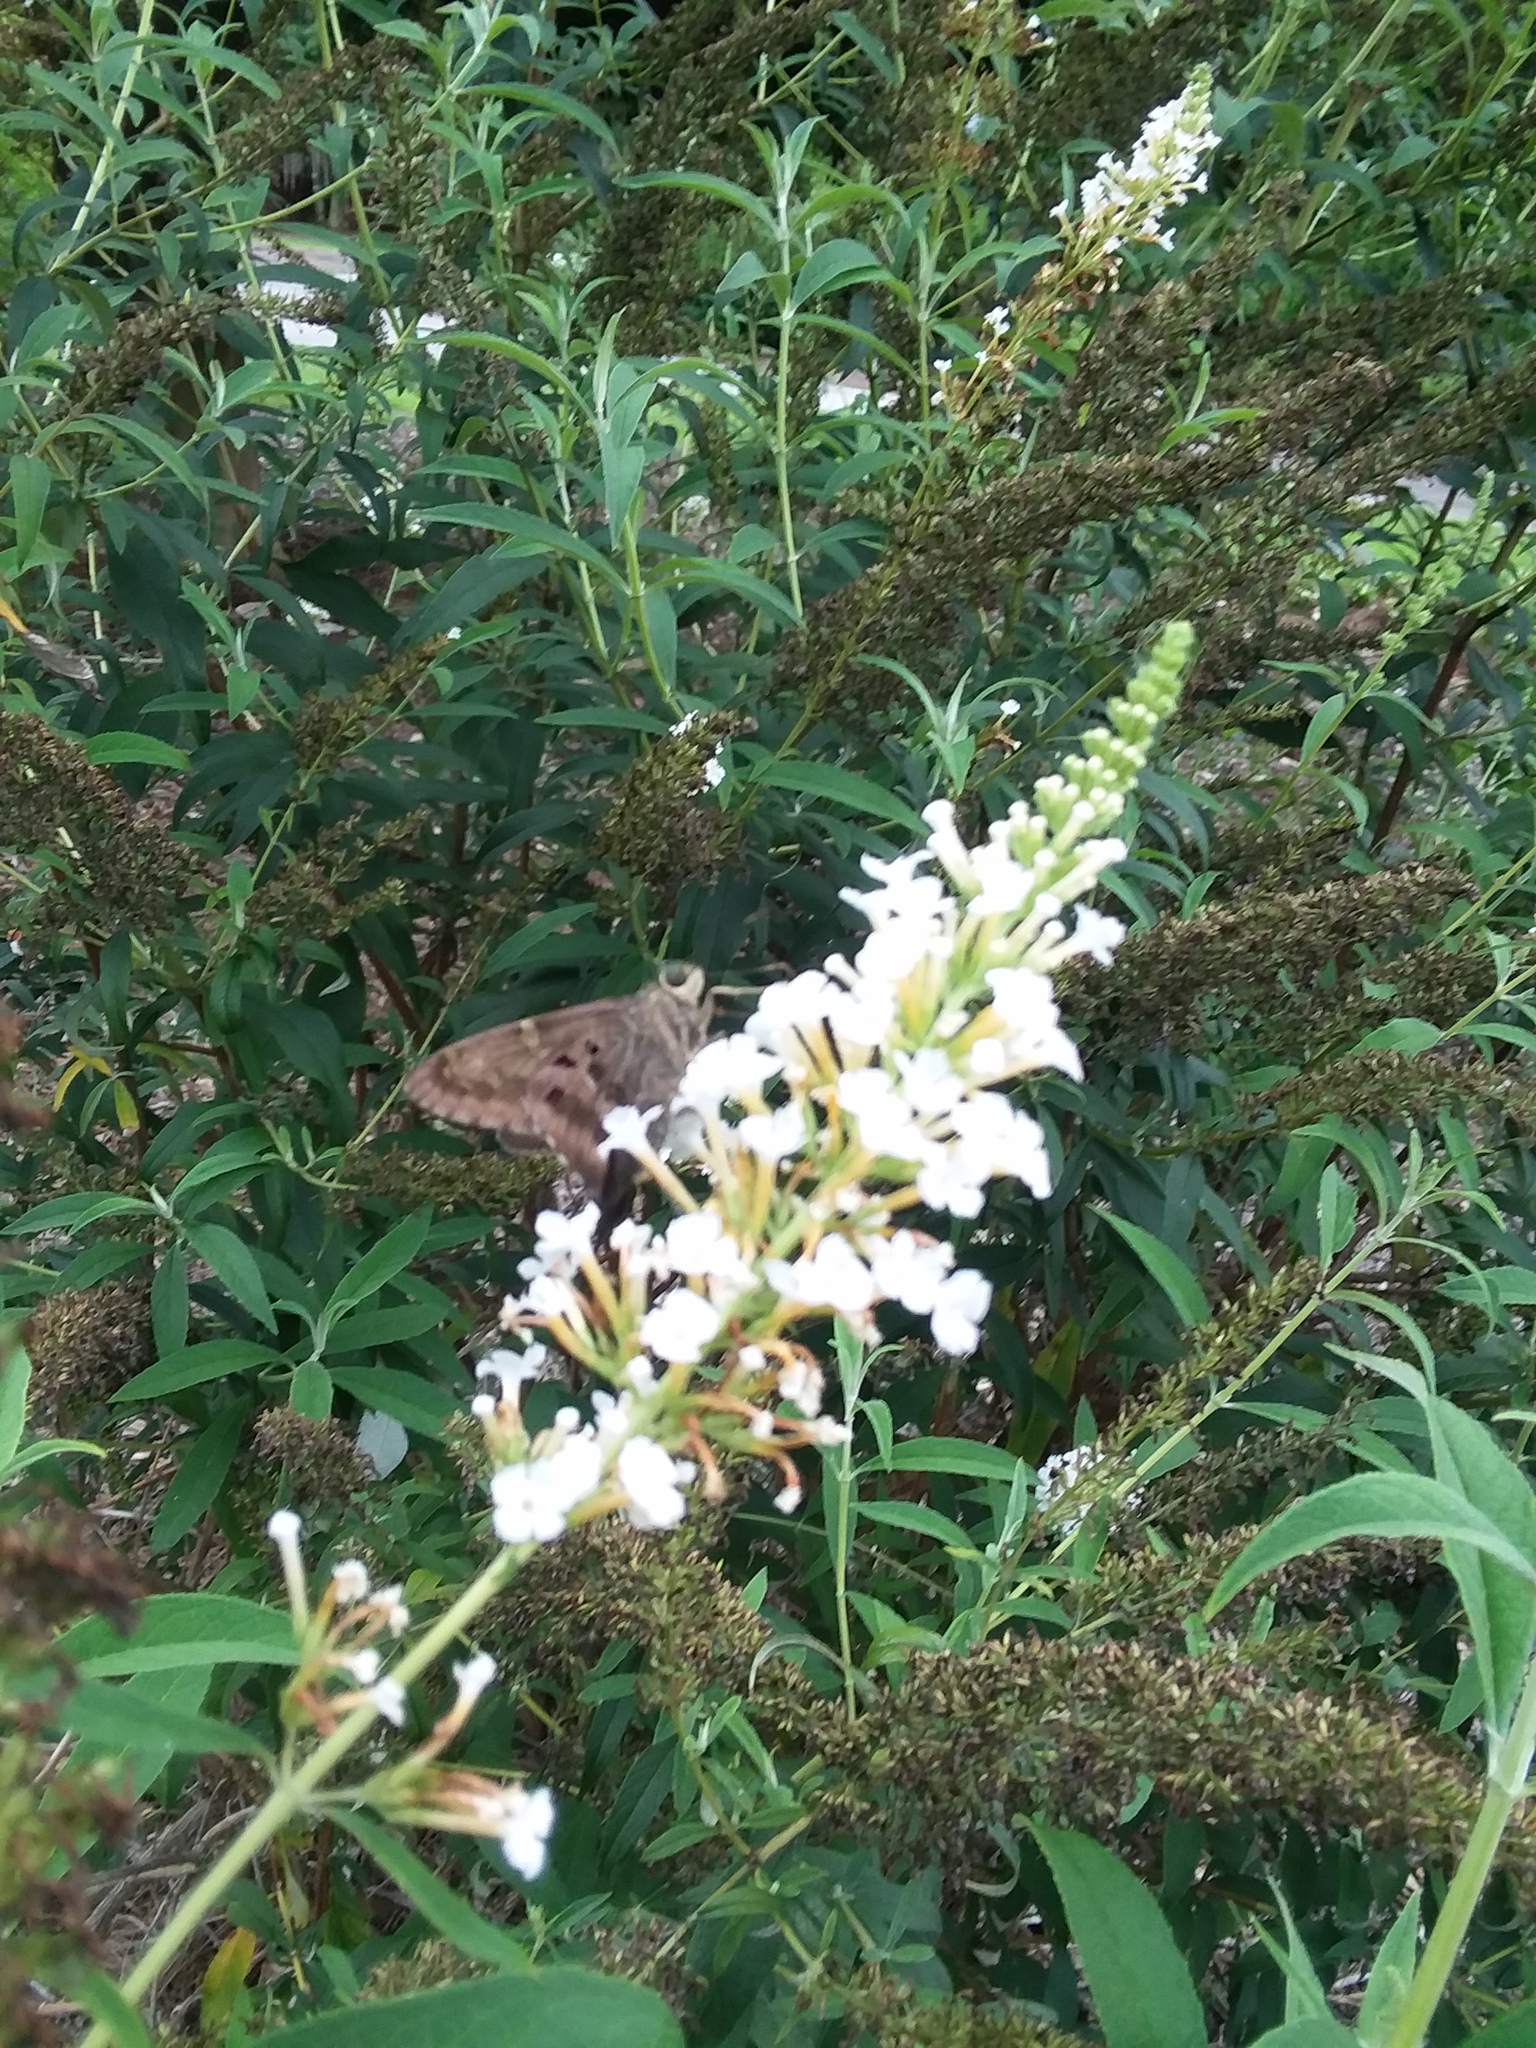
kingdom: Animalia
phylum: Arthropoda
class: Insecta
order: Lepidoptera
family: Hesperiidae
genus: Urbanus
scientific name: Urbanus proteus
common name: Long-tailed skipper
